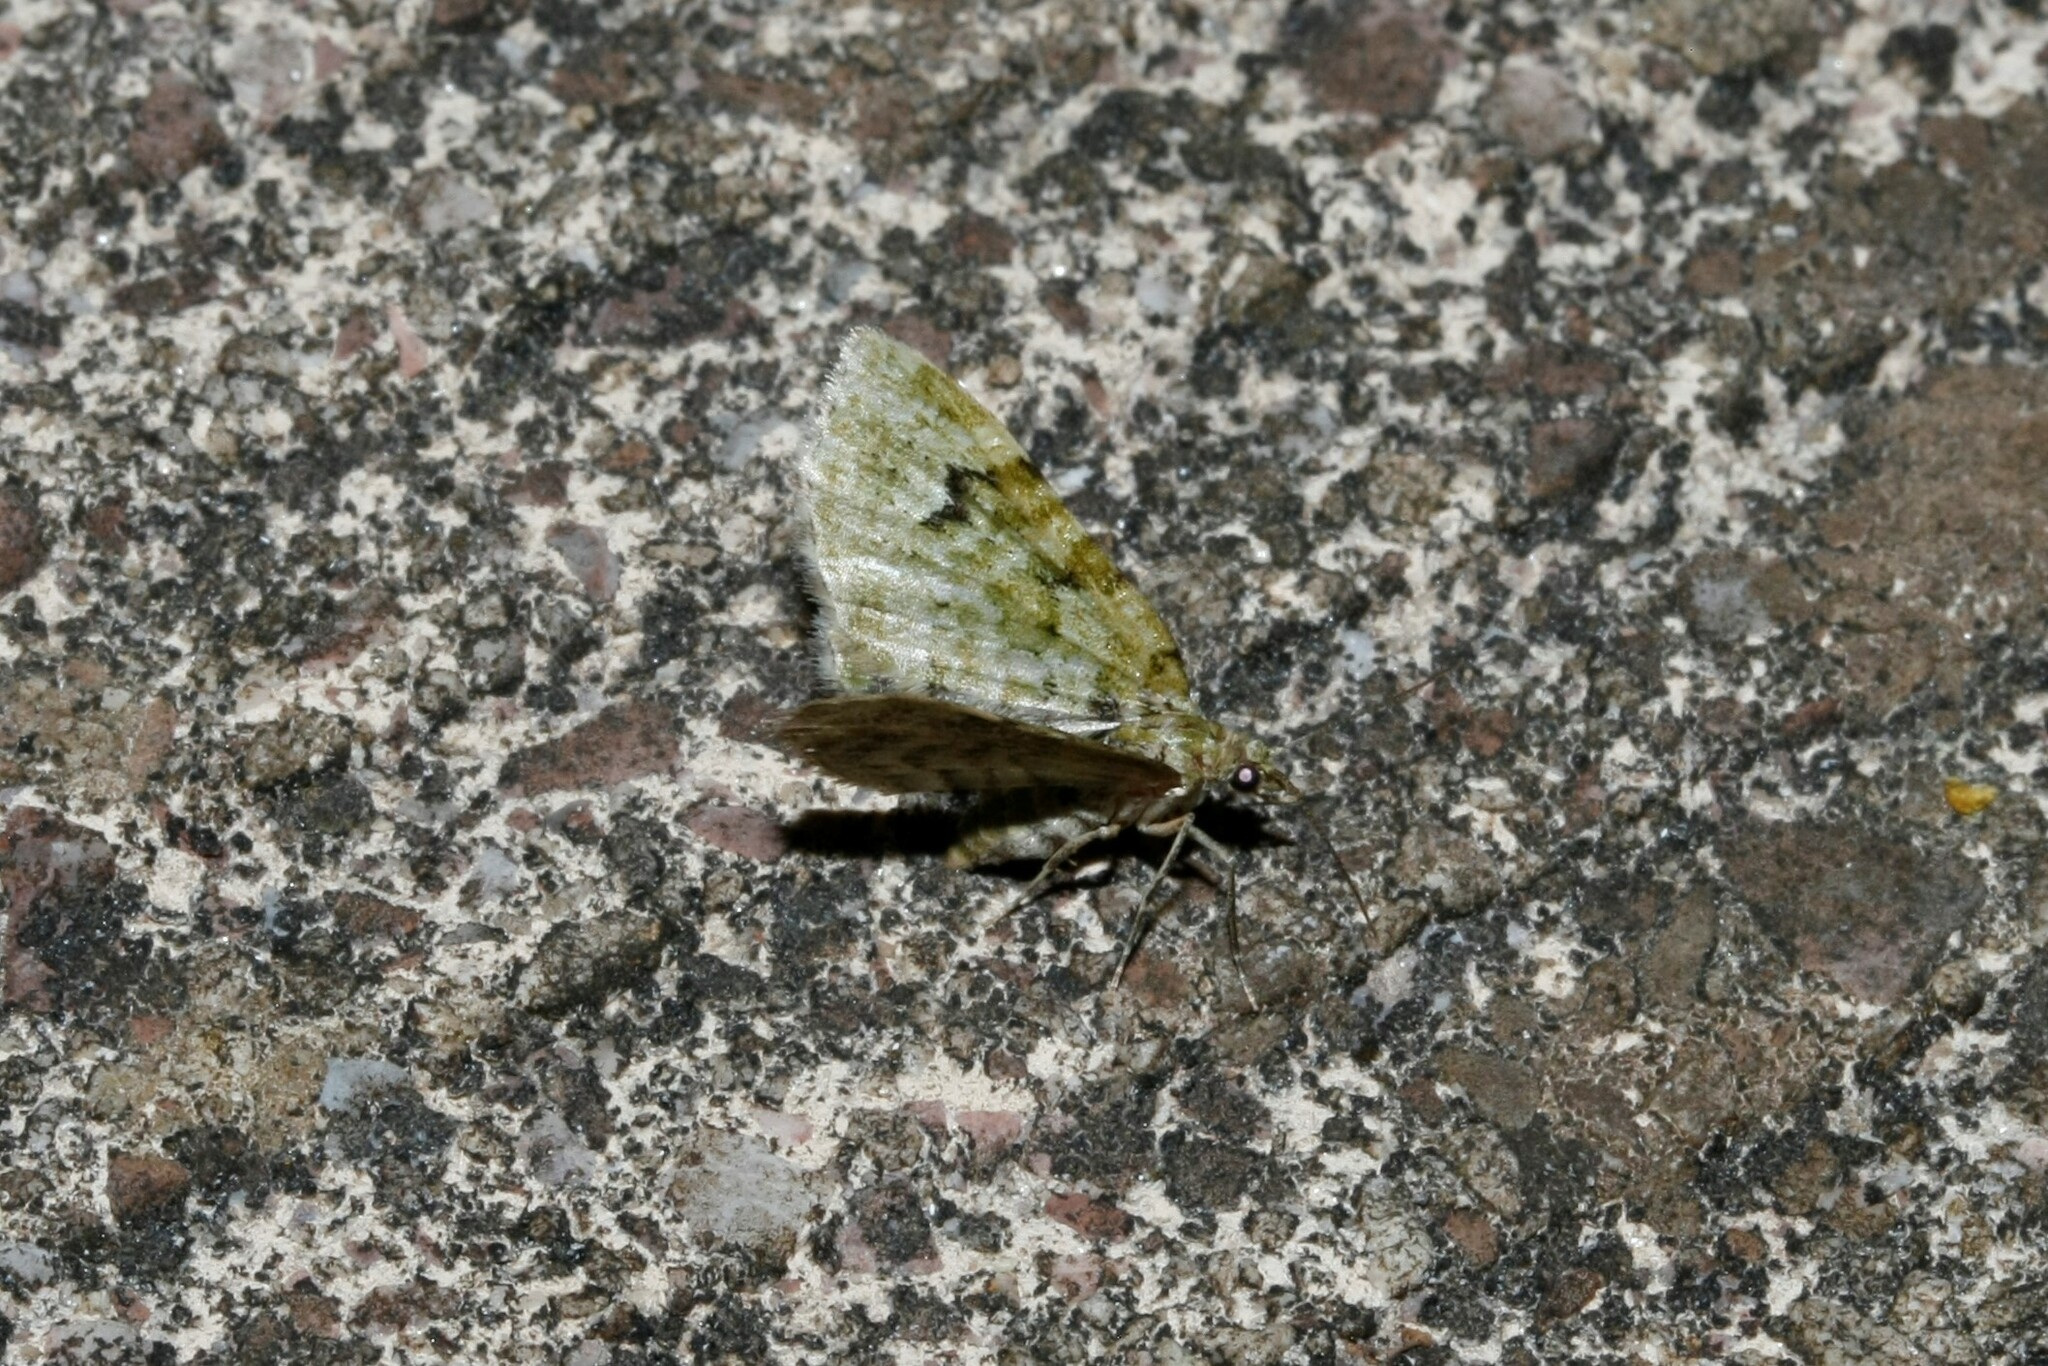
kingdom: Animalia
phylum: Arthropoda
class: Insecta
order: Lepidoptera
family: Geometridae
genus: Chloroclystis
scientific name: Chloroclystis v-ata
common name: V-pug
